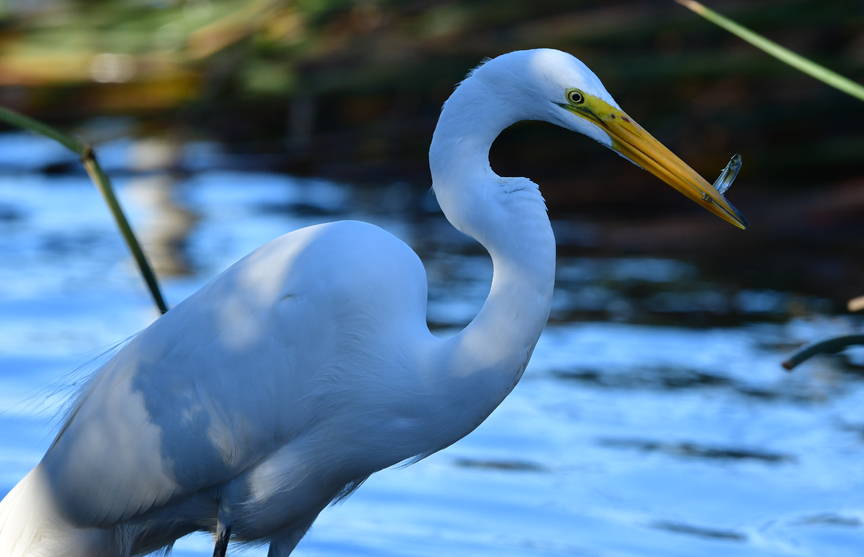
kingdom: Animalia
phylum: Chordata
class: Aves
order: Pelecaniformes
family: Ardeidae
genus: Ardea
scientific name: Ardea alba
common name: Great egret
